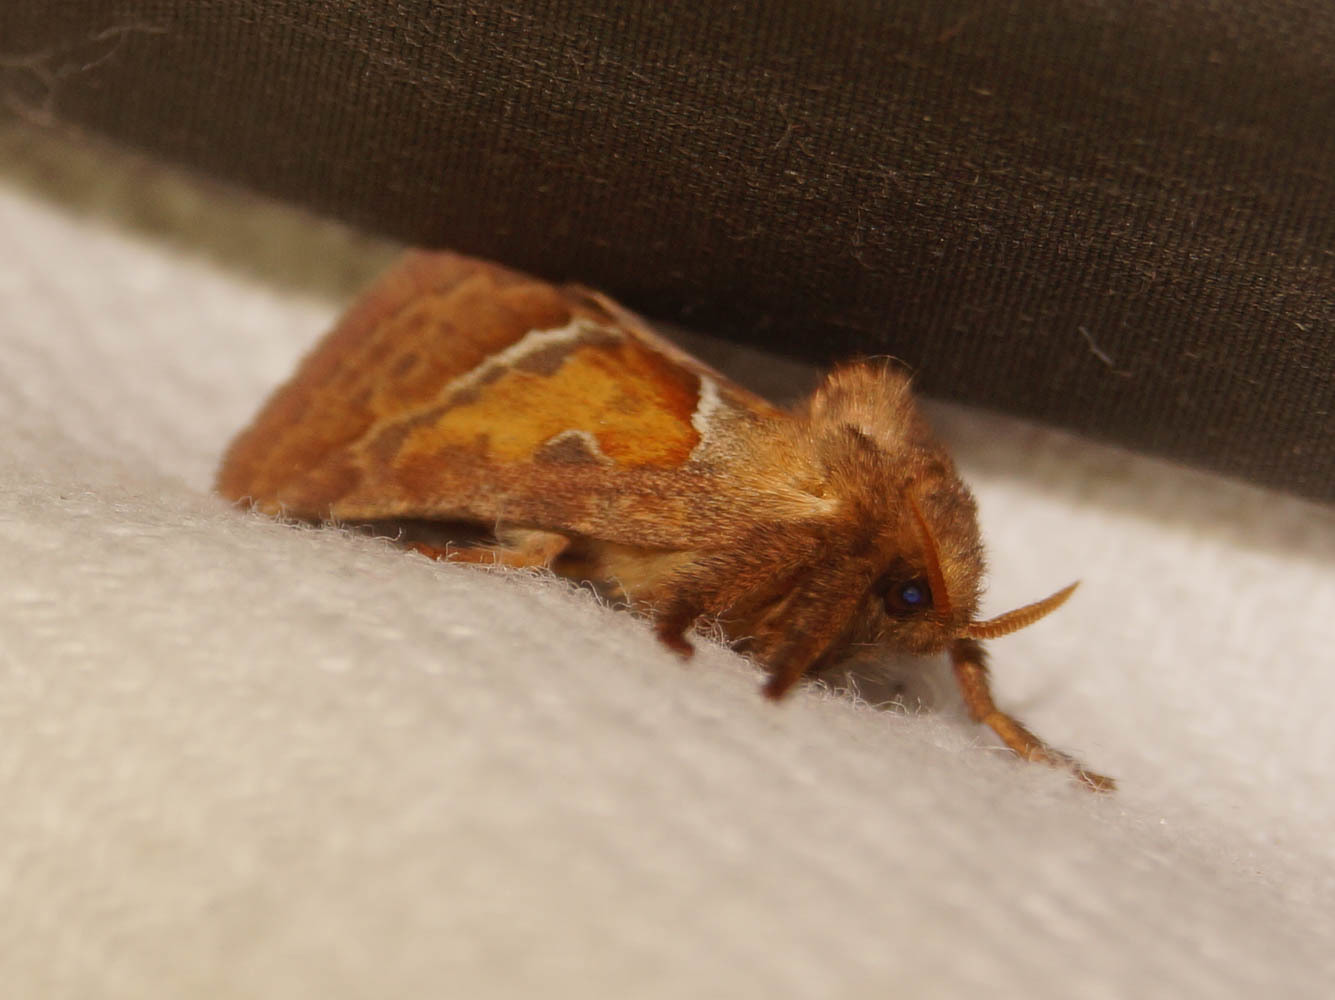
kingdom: Animalia
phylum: Arthropoda
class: Insecta
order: Lepidoptera
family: Hepialidae
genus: Triodia
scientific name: Triodia sylvina
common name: Orange swift
